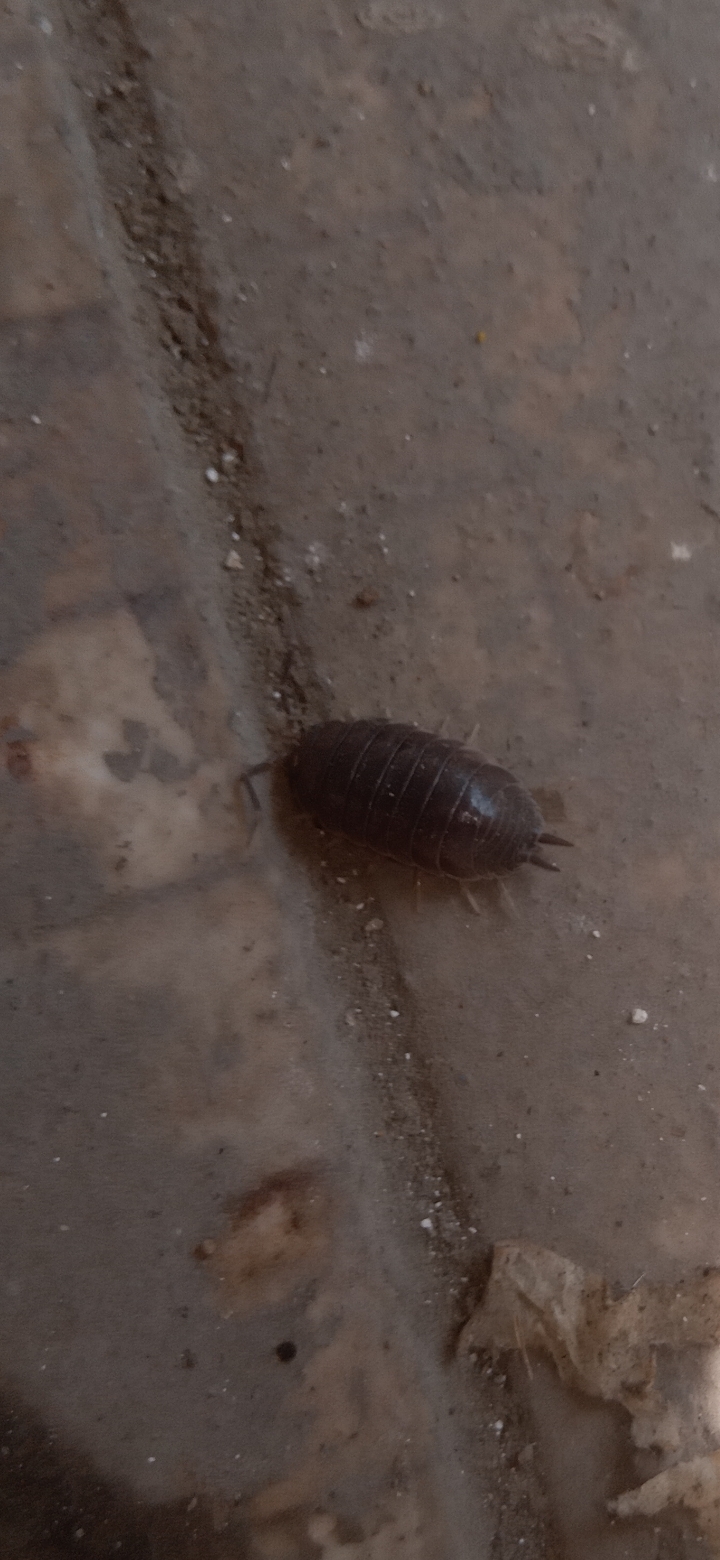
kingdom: Animalia
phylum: Arthropoda
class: Malacostraca
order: Isopoda
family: Porcellionidae
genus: Porcellio
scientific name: Porcellio laevis
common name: Swift woodlouse
